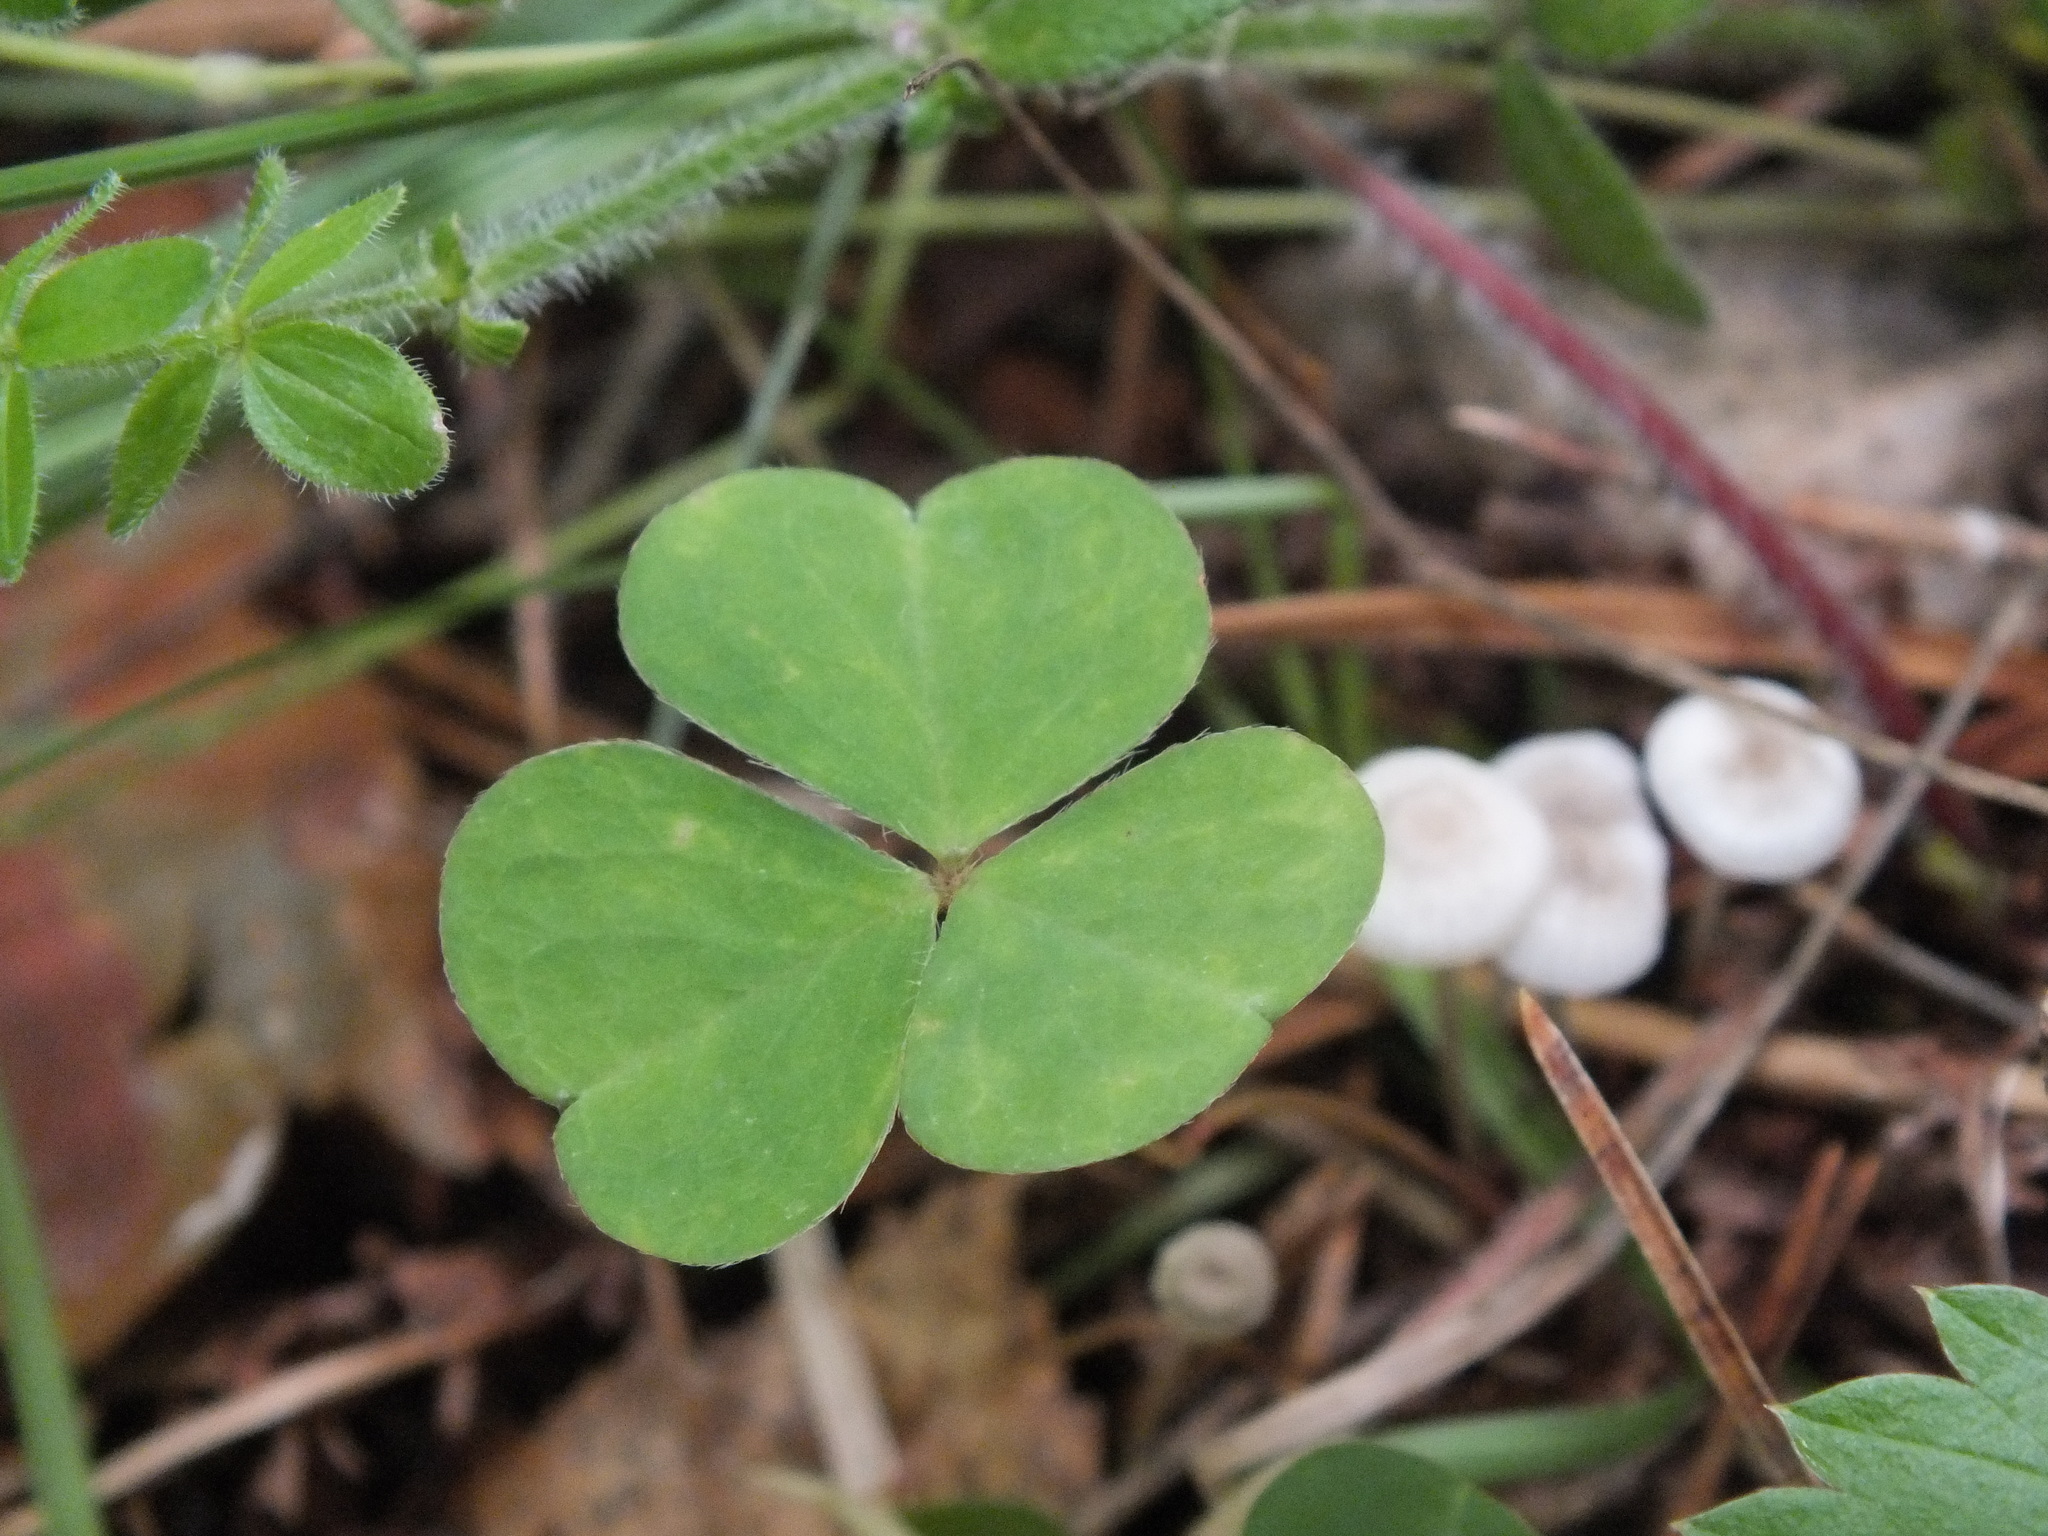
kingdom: Plantae
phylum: Tracheophyta
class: Magnoliopsida
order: Oxalidales
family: Oxalidaceae
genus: Oxalis
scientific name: Oxalis acetosella
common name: Wood-sorrel
